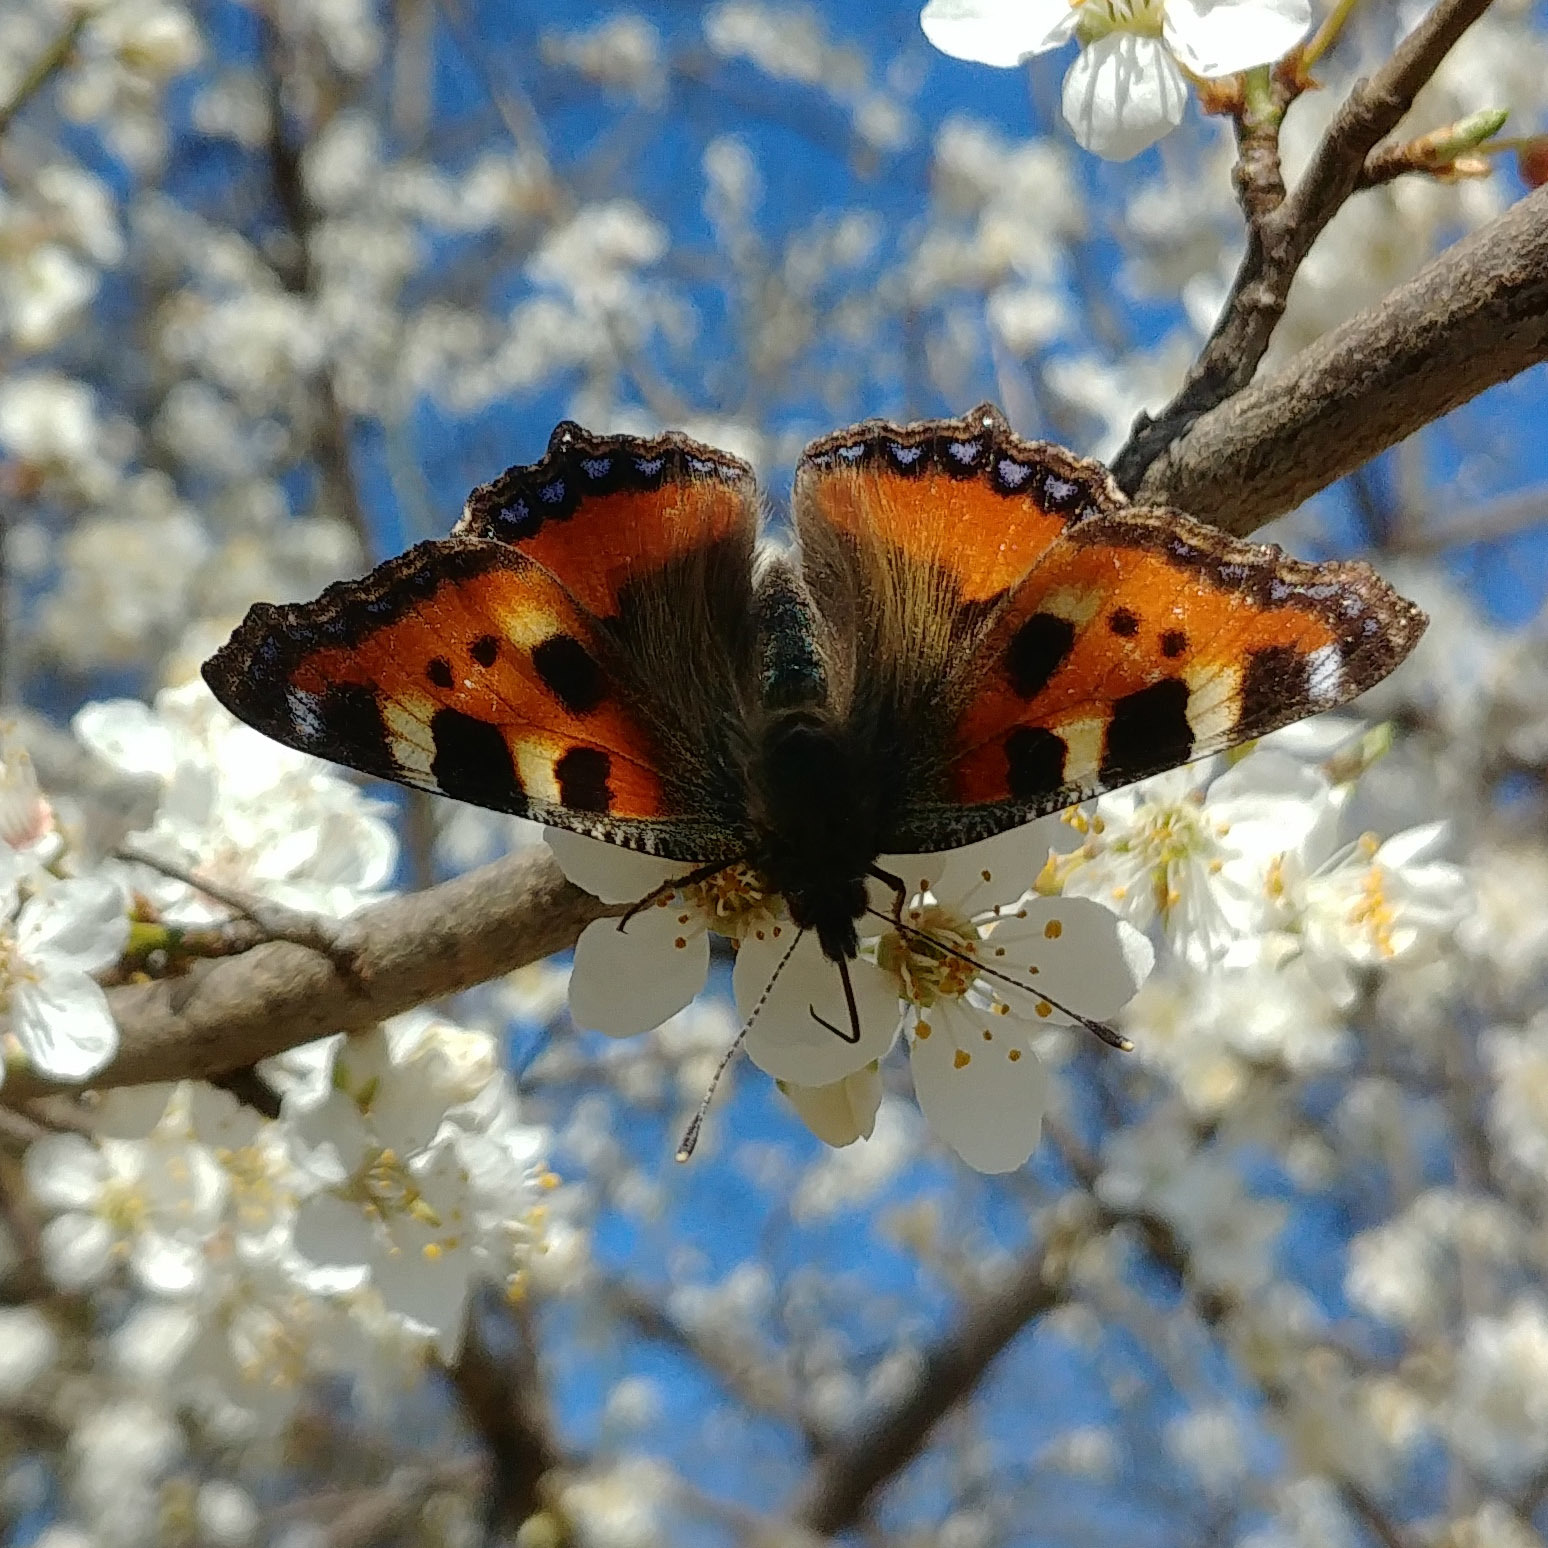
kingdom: Animalia
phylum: Arthropoda
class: Insecta
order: Lepidoptera
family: Nymphalidae
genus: Aglais
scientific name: Aglais urticae
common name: Small tortoiseshell
